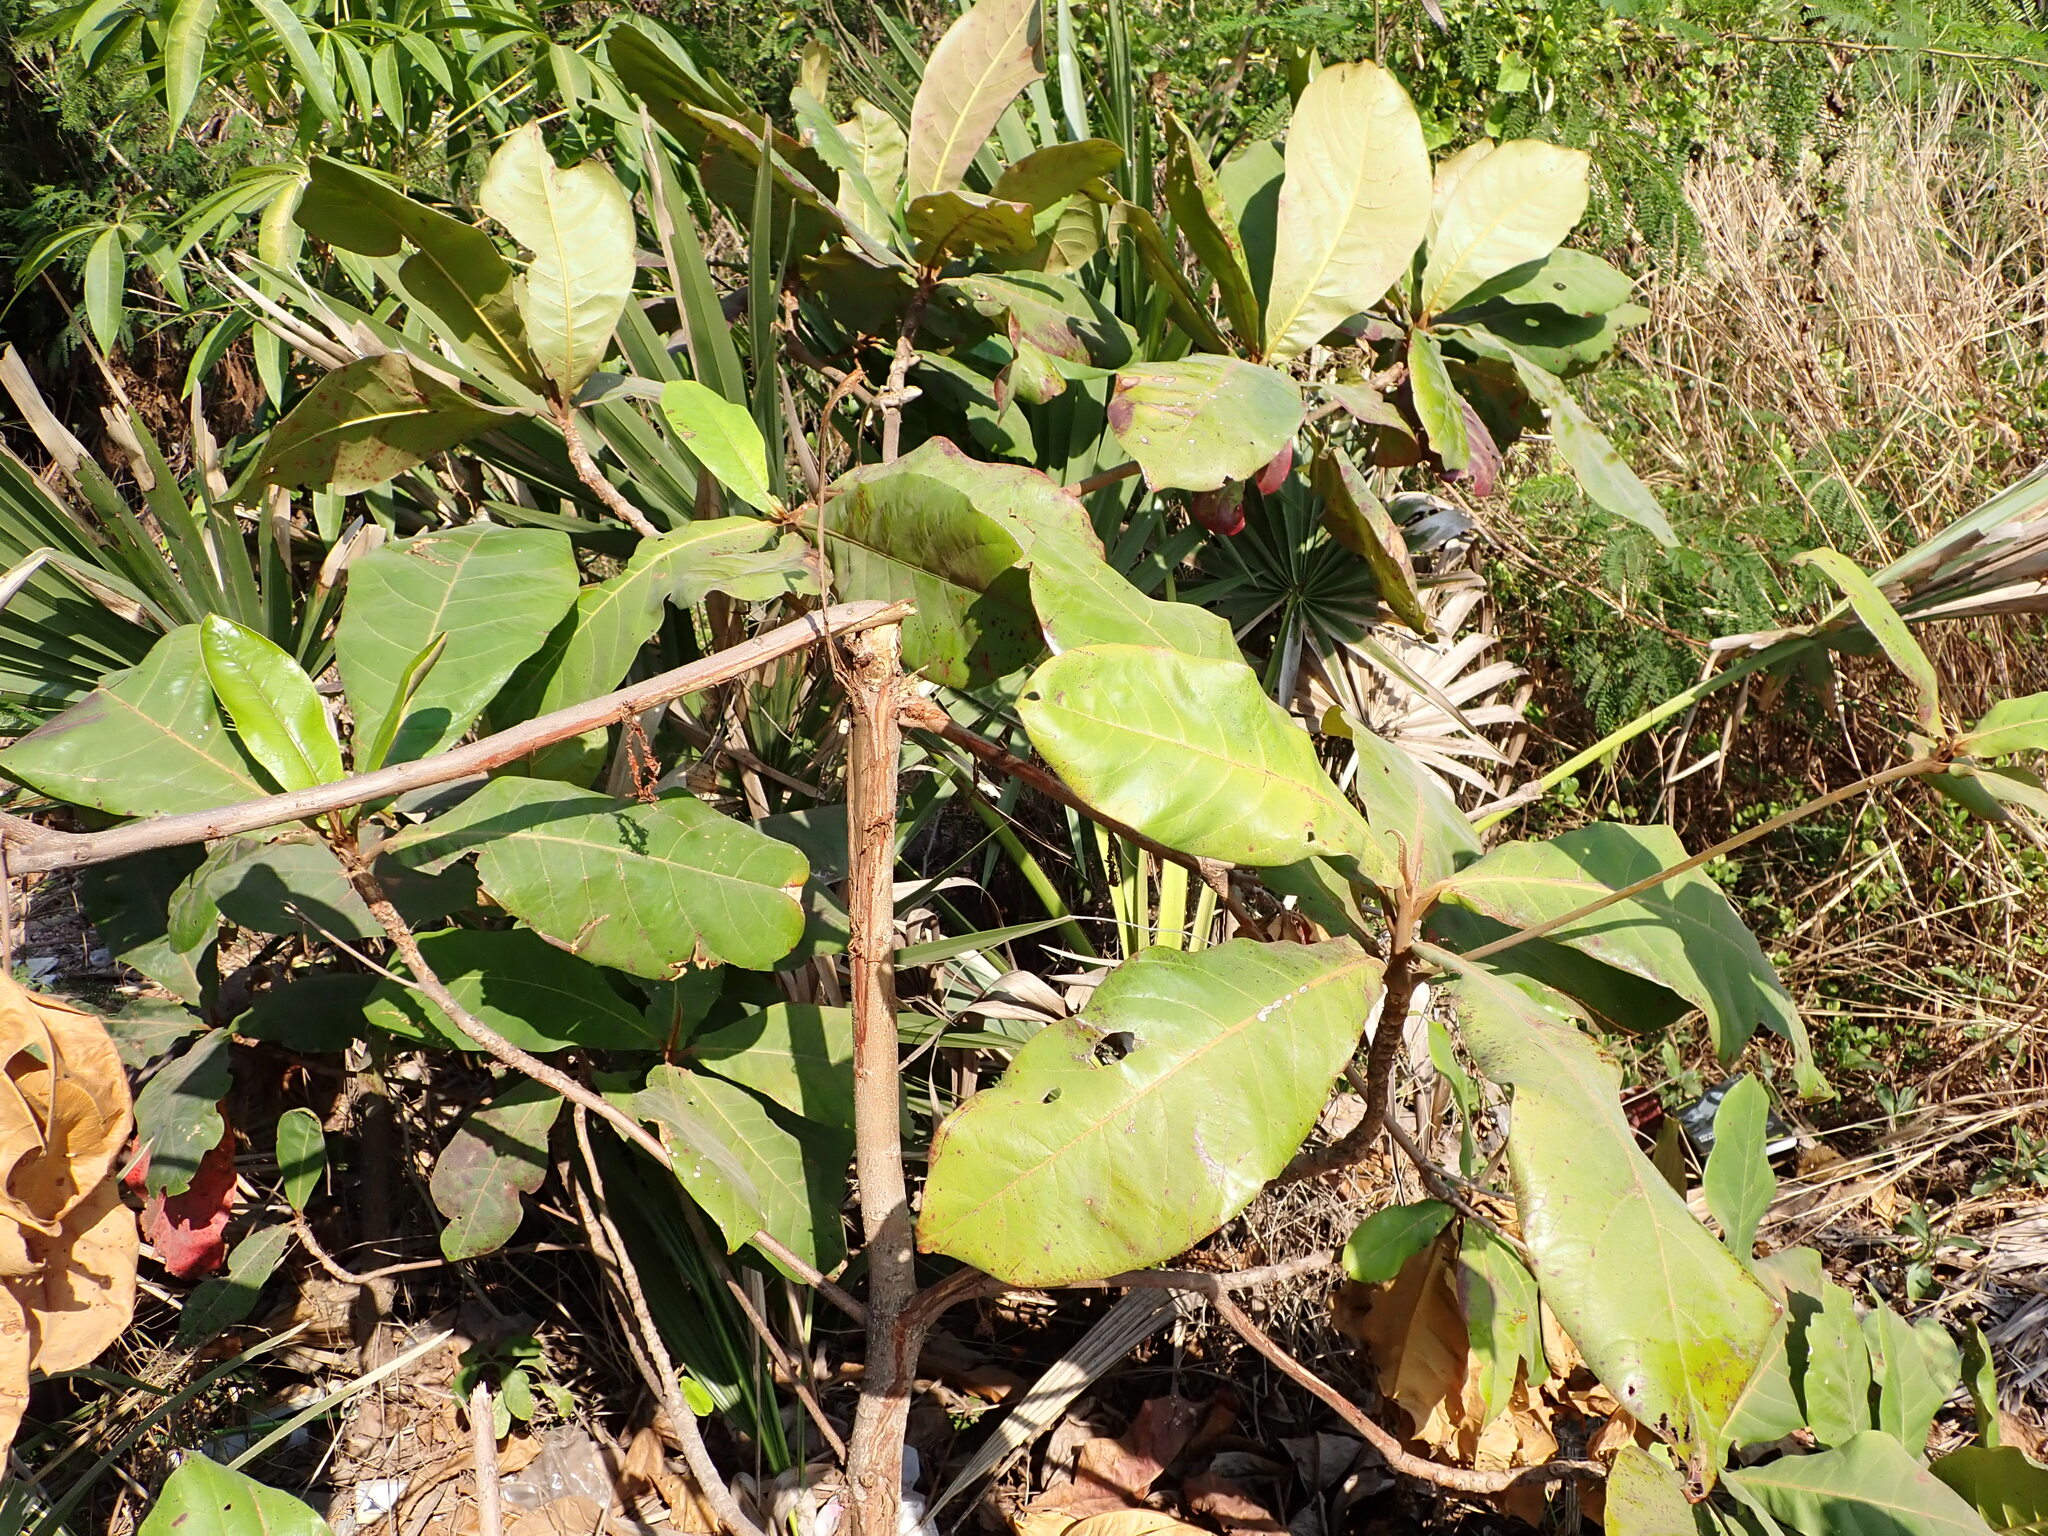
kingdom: Plantae
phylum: Tracheophyta
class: Magnoliopsida
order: Myrtales
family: Combretaceae
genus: Terminalia
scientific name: Terminalia catappa
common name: Tropical almond
